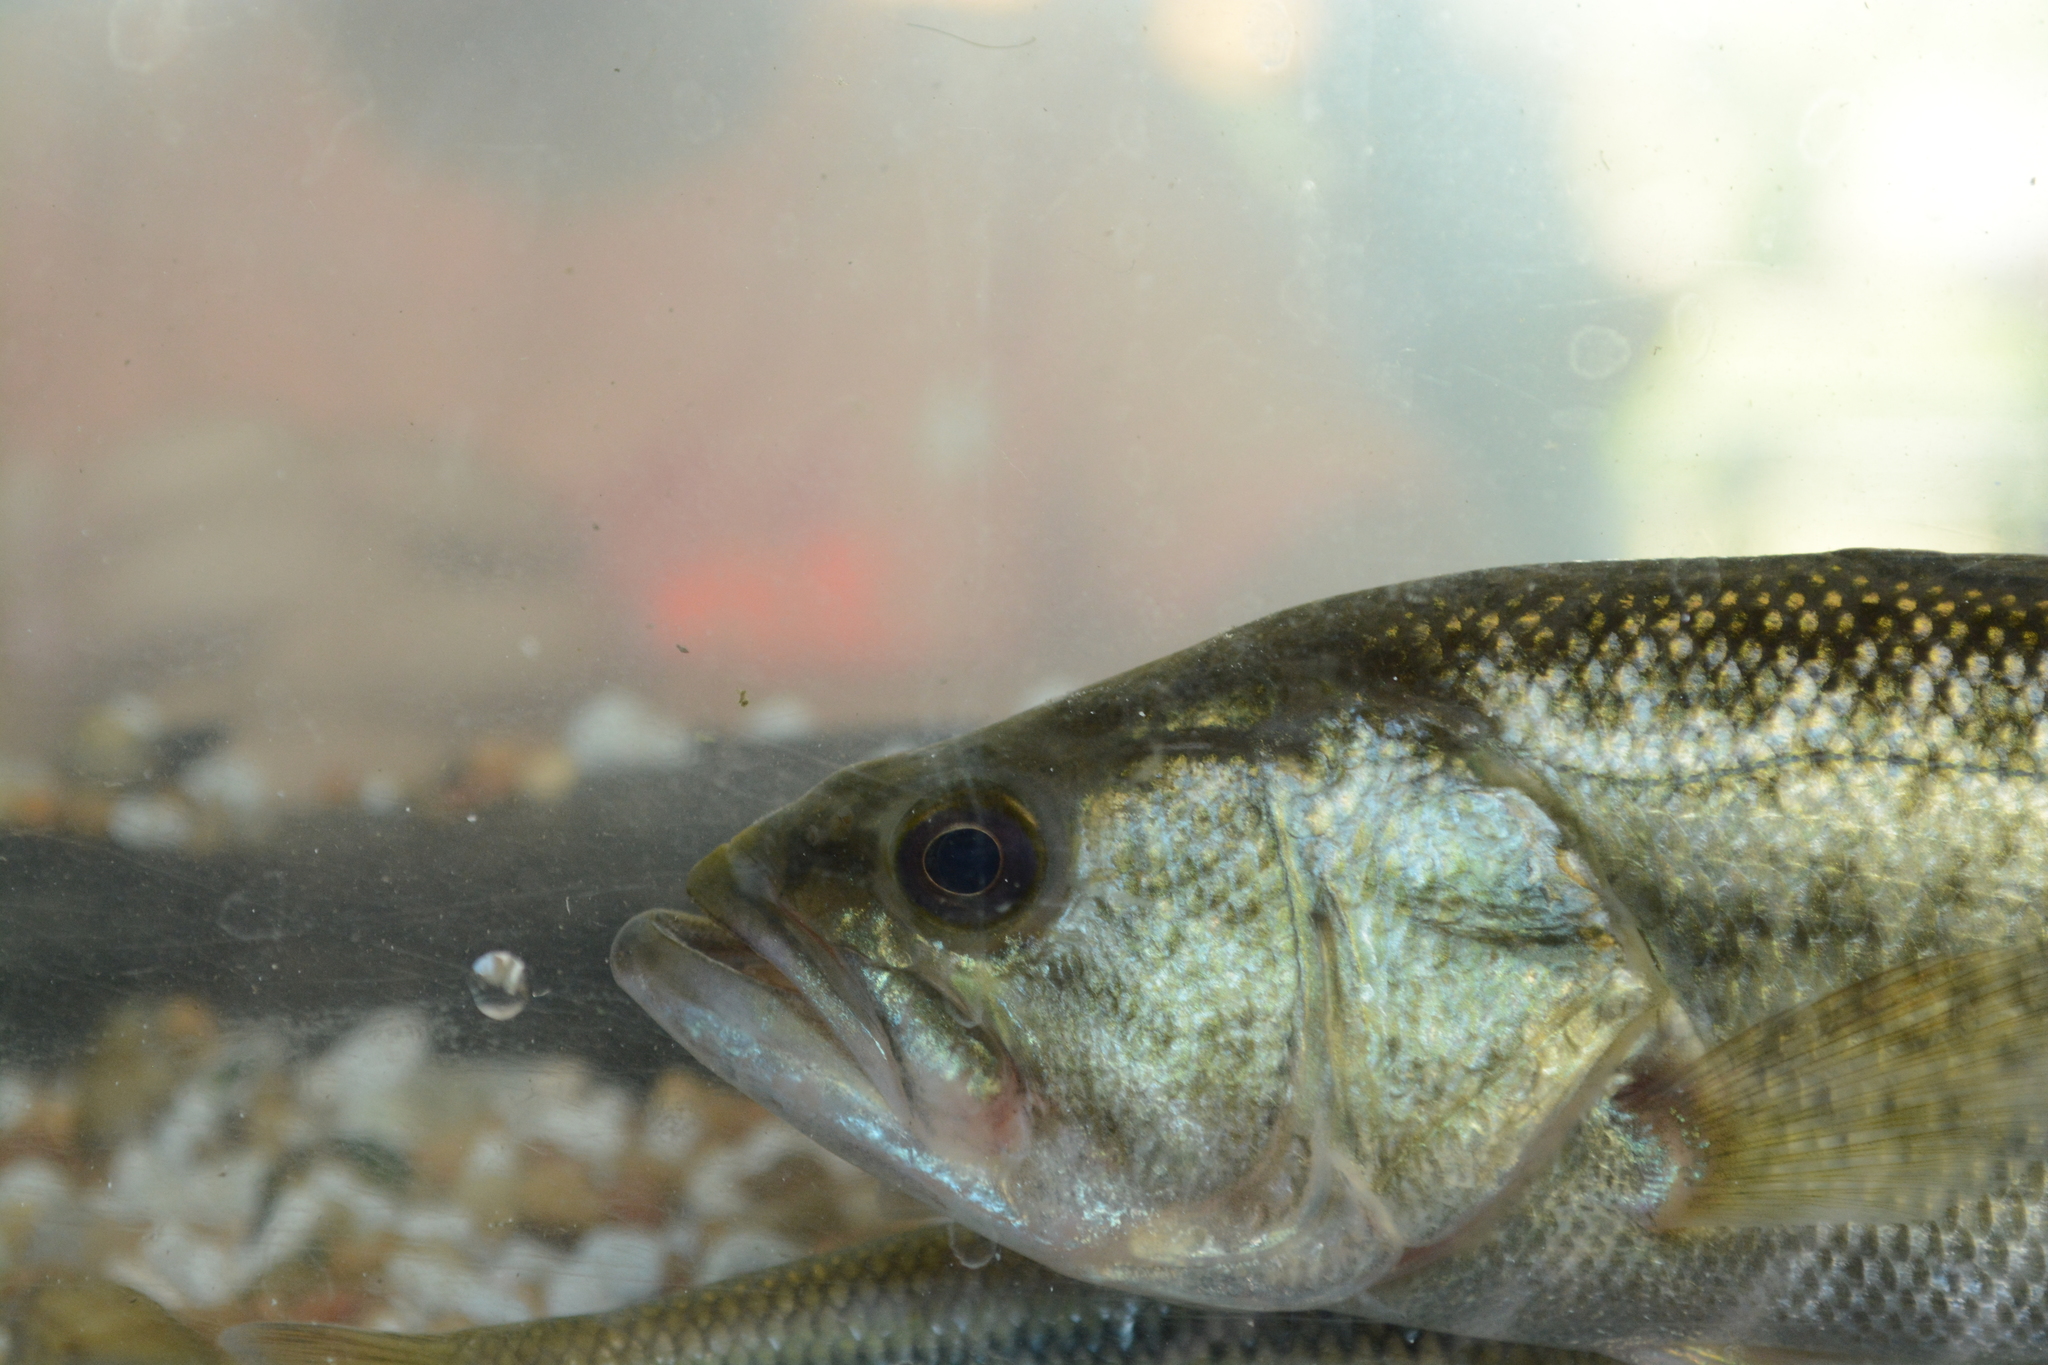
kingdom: Animalia
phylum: Chordata
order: Perciformes
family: Centrarchidae
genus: Micropterus
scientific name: Micropterus
